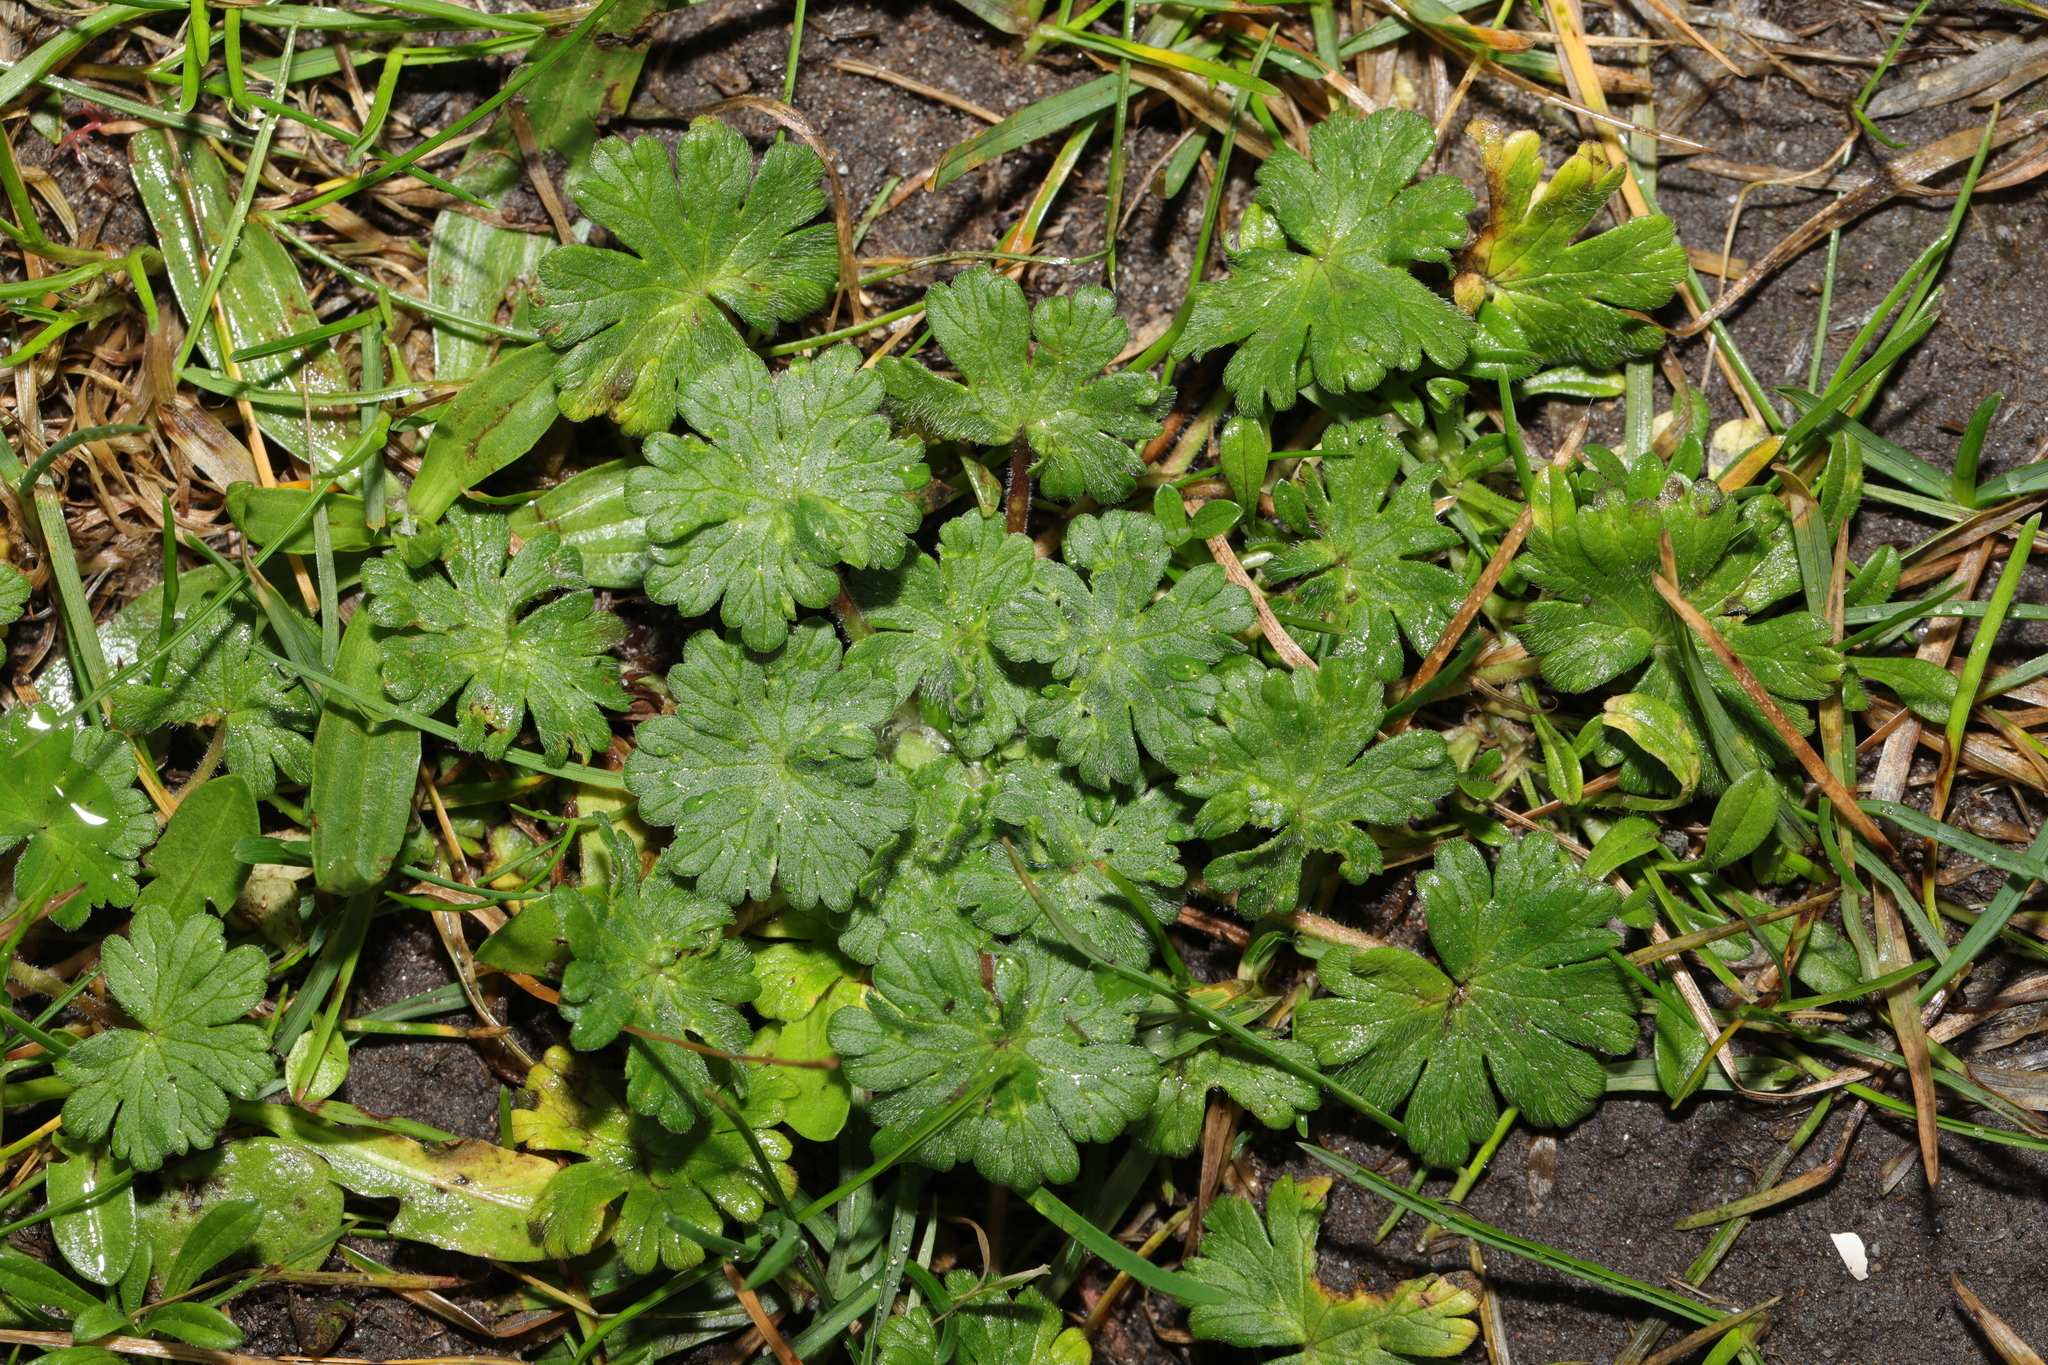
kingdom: Plantae
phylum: Tracheophyta
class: Magnoliopsida
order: Geraniales
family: Geraniaceae
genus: Geranium
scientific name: Geranium molle
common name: Dove's-foot crane's-bill
